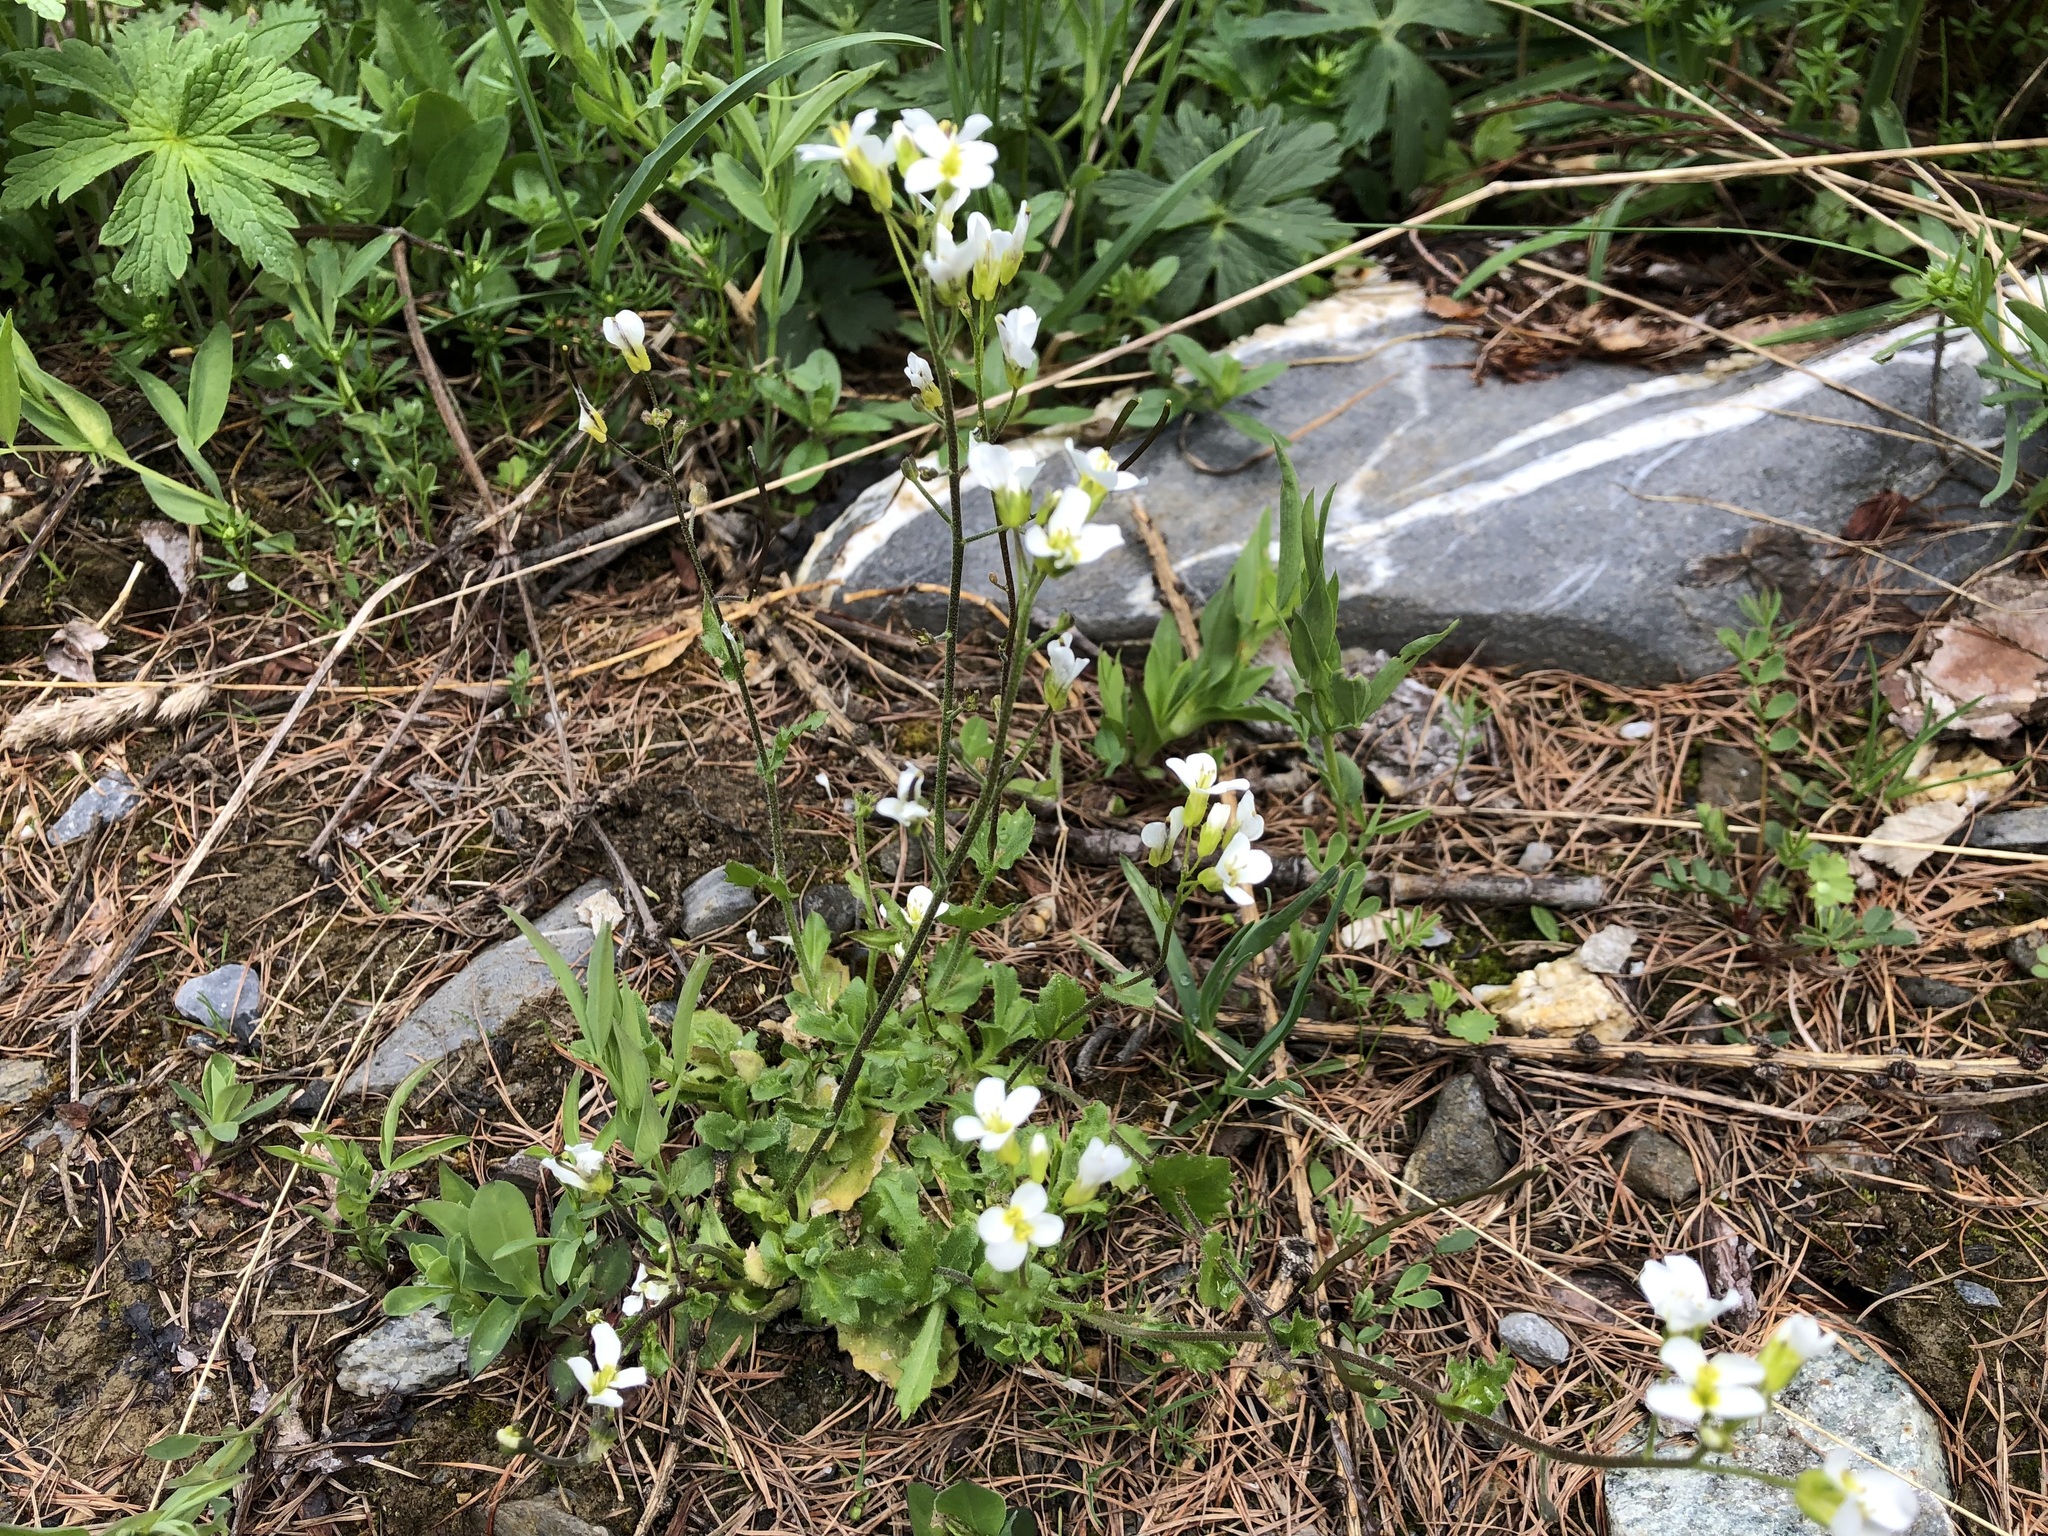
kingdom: Plantae
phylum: Tracheophyta
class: Magnoliopsida
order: Brassicales
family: Brassicaceae
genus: Arabis
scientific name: Arabis alpina
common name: Alpine rock-cress
